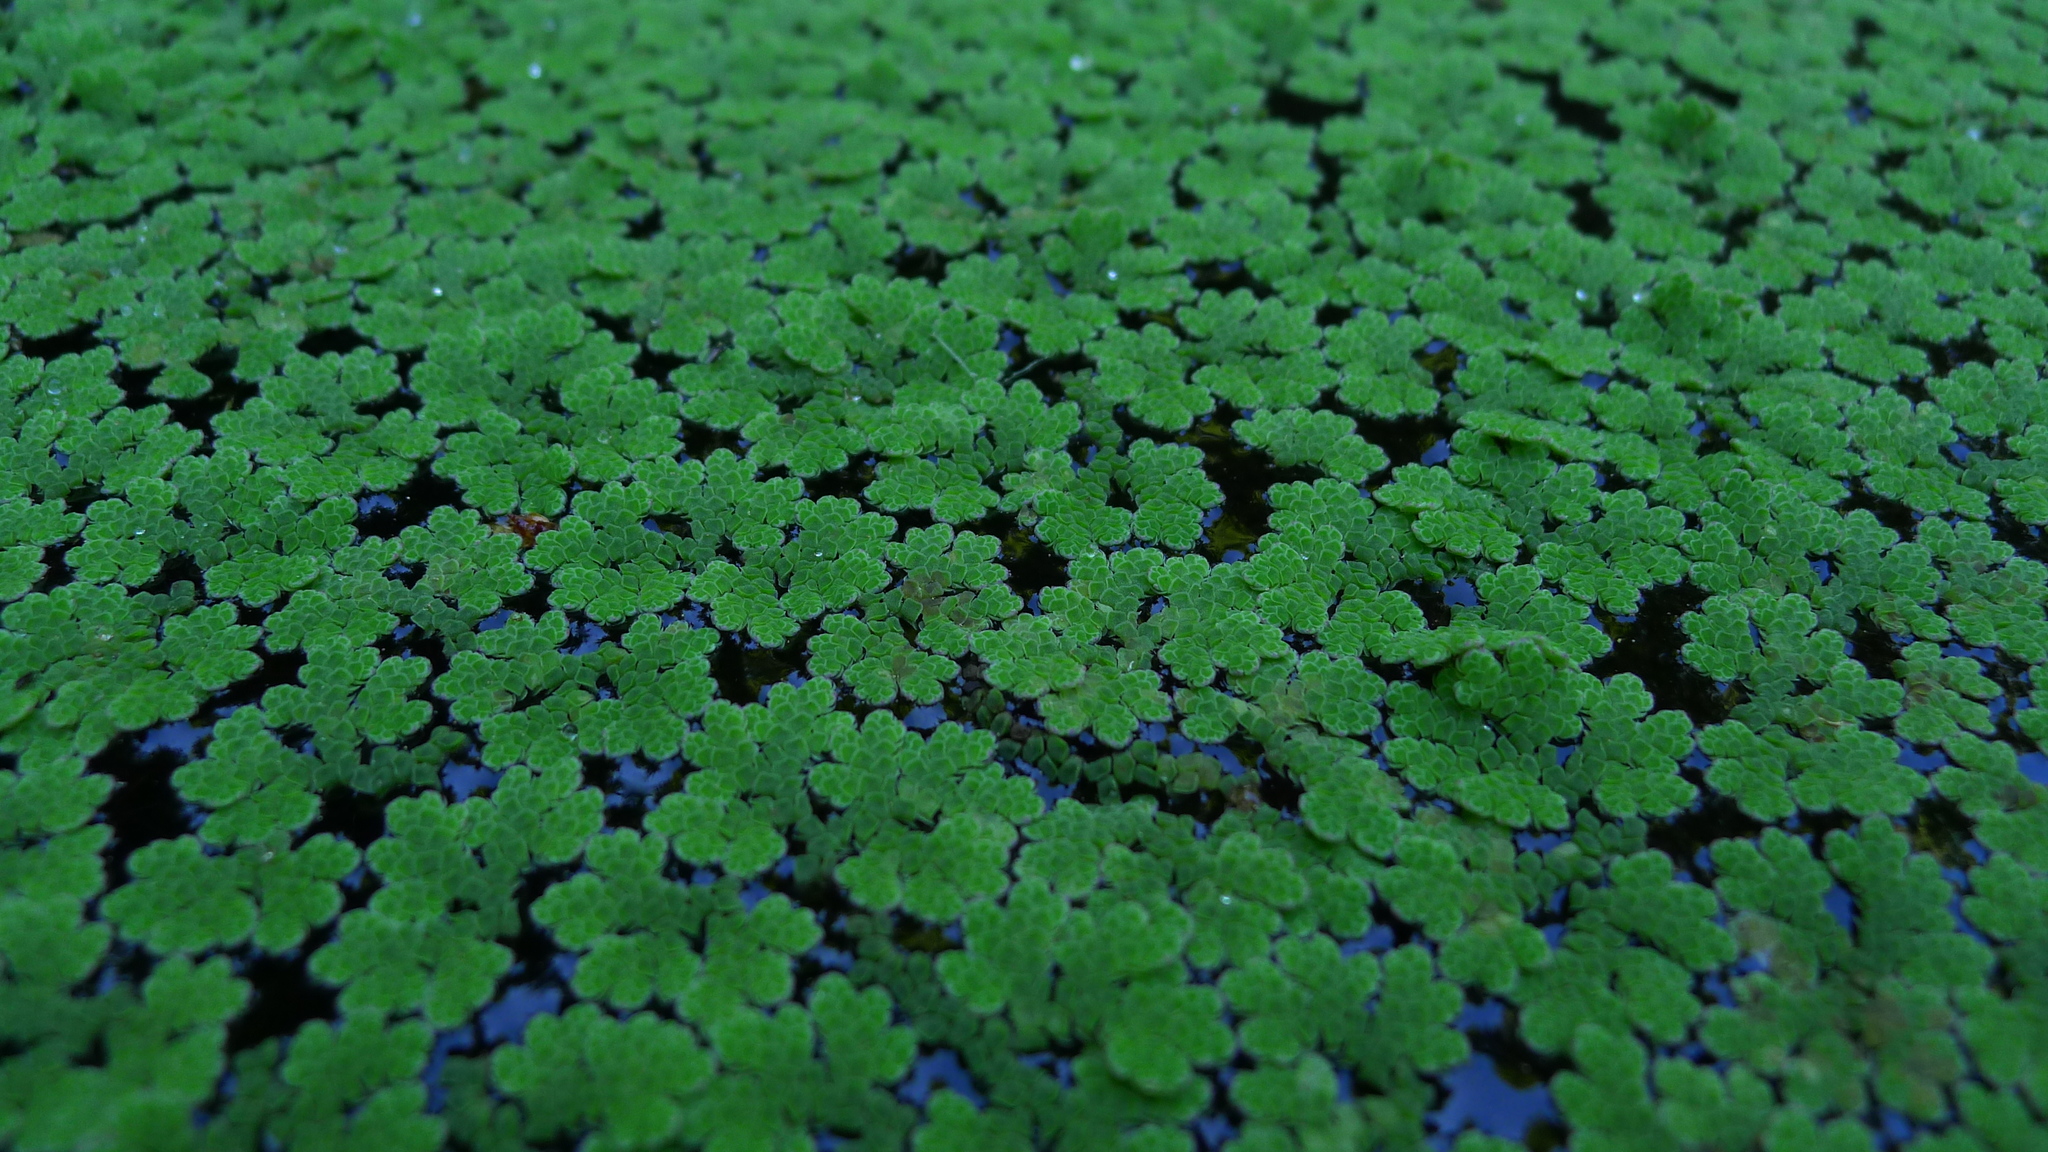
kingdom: Plantae
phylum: Tracheophyta
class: Polypodiopsida
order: Salviniales
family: Salviniaceae
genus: Azolla
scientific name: Azolla rubra
